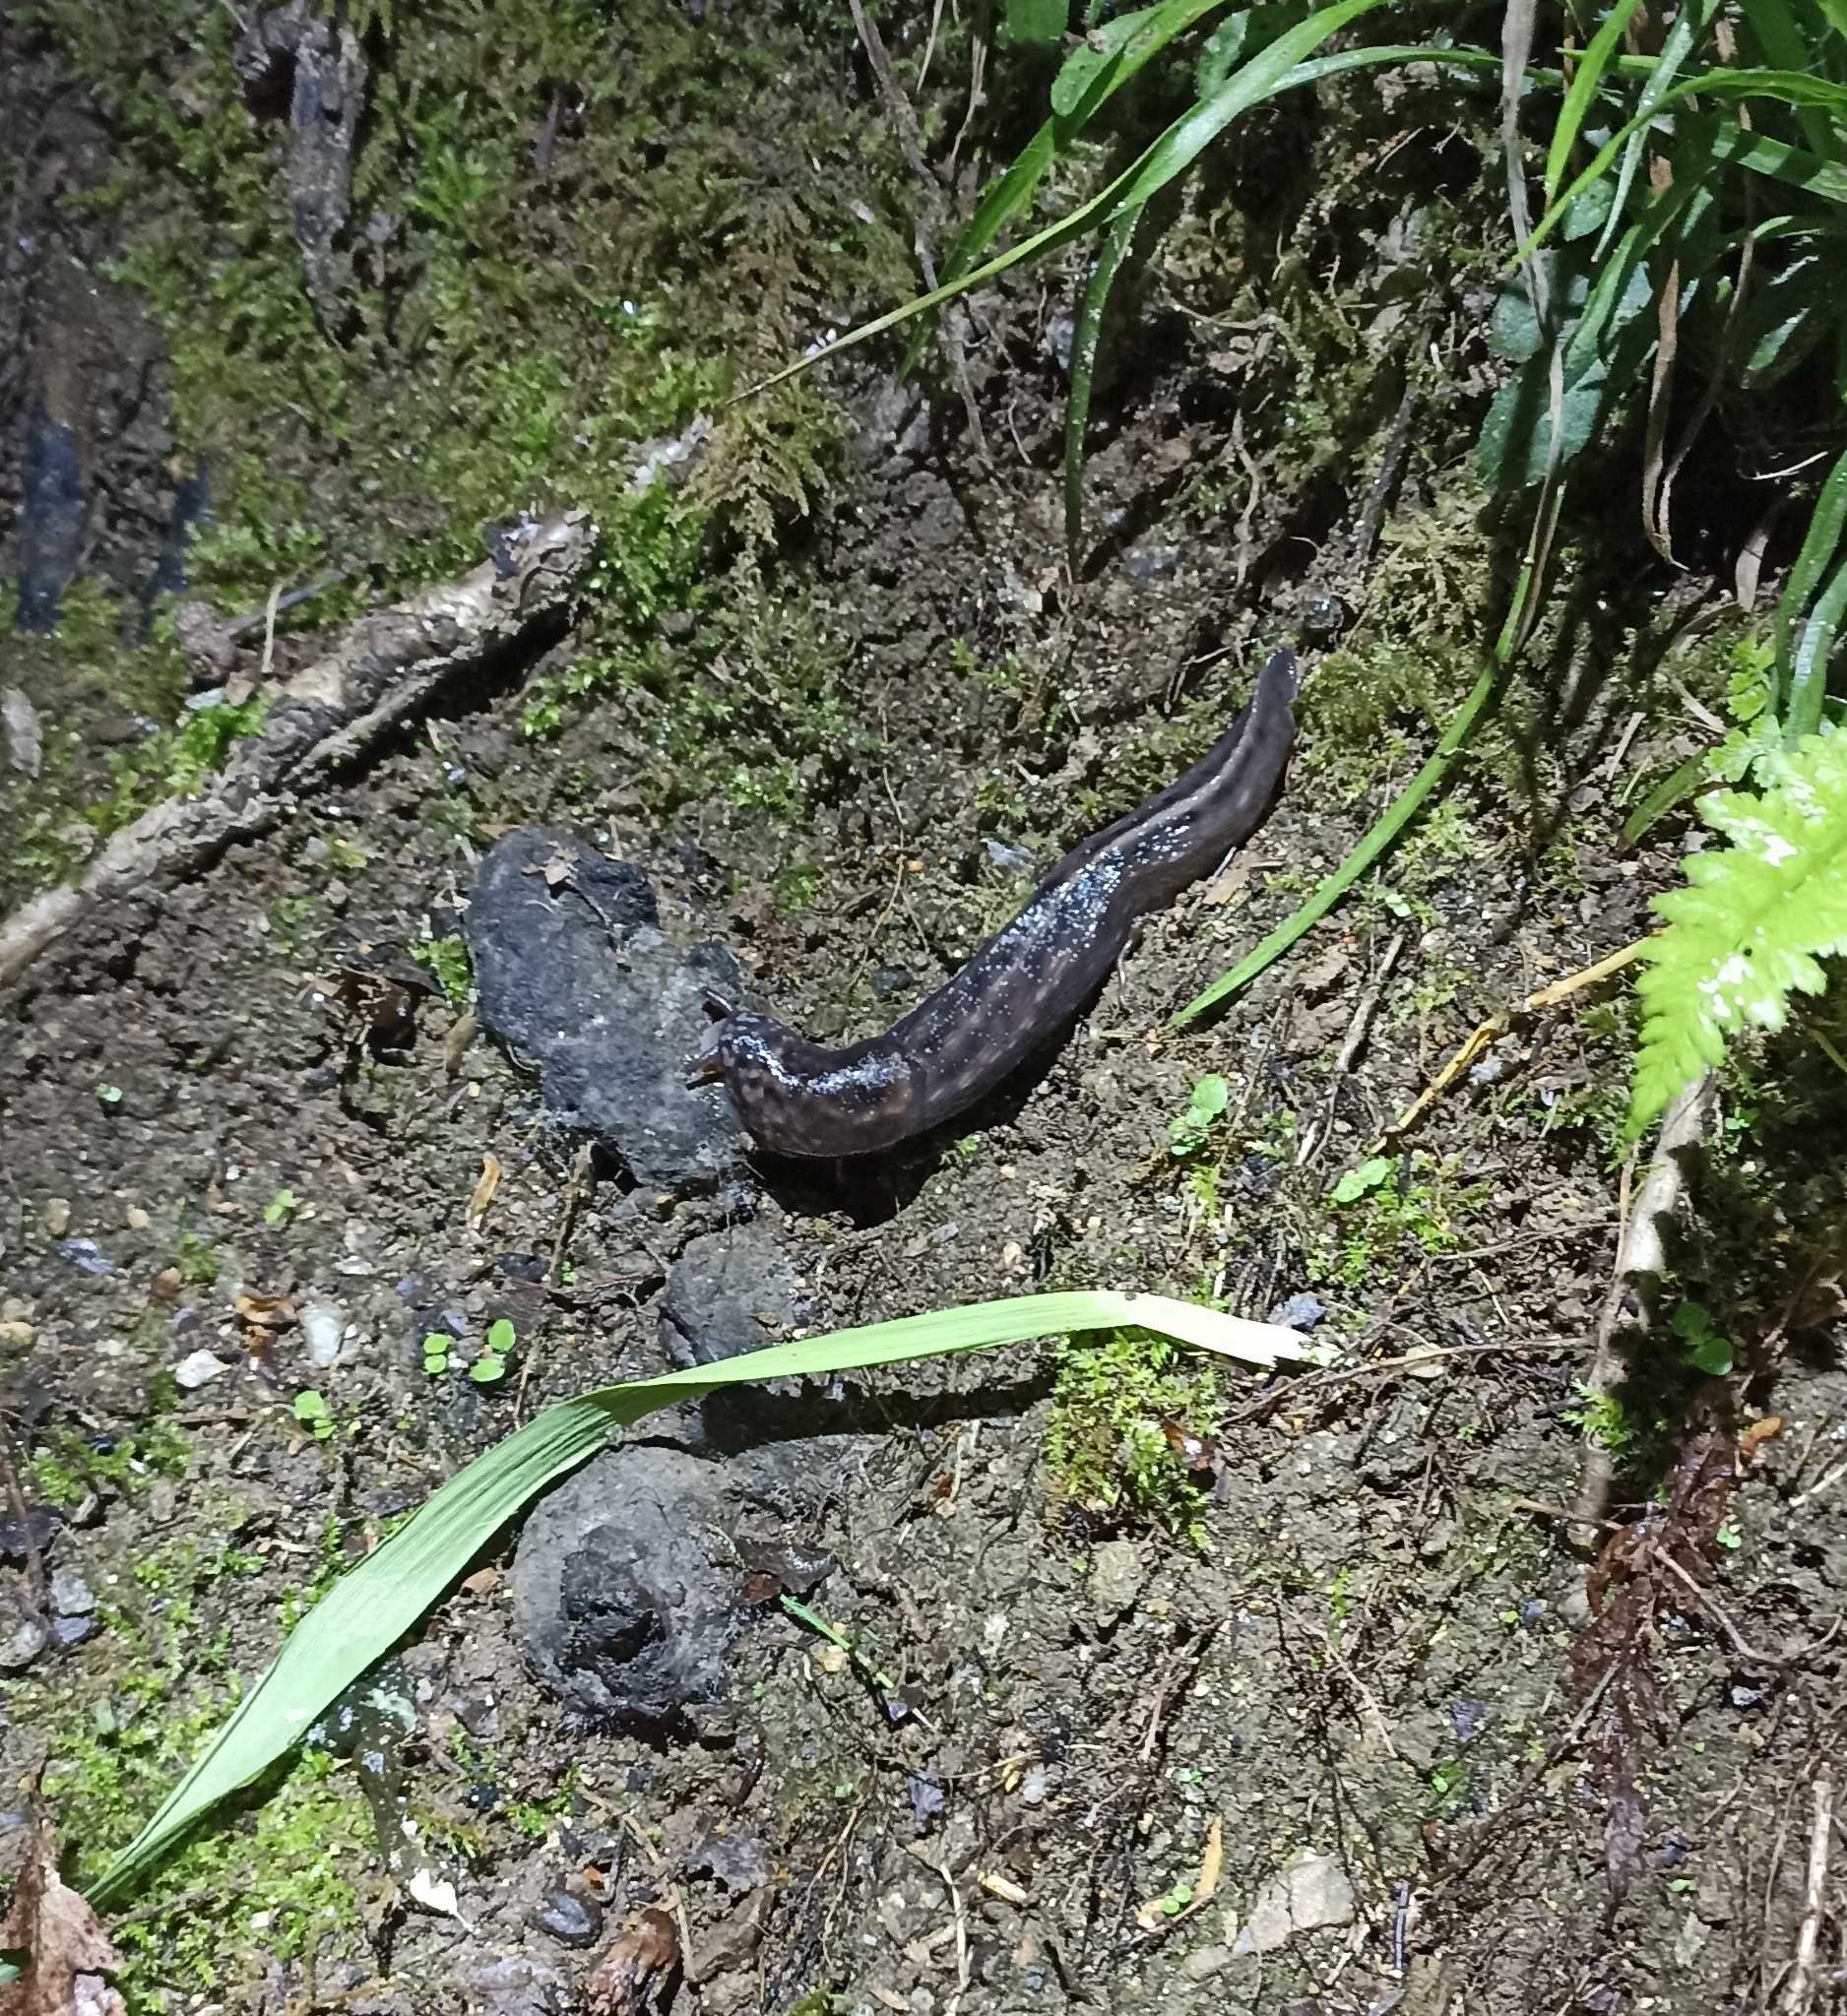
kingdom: Animalia
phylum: Mollusca
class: Gastropoda
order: Stylommatophora
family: Limacidae
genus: Limax
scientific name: Limax maximus
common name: Great grey slug
